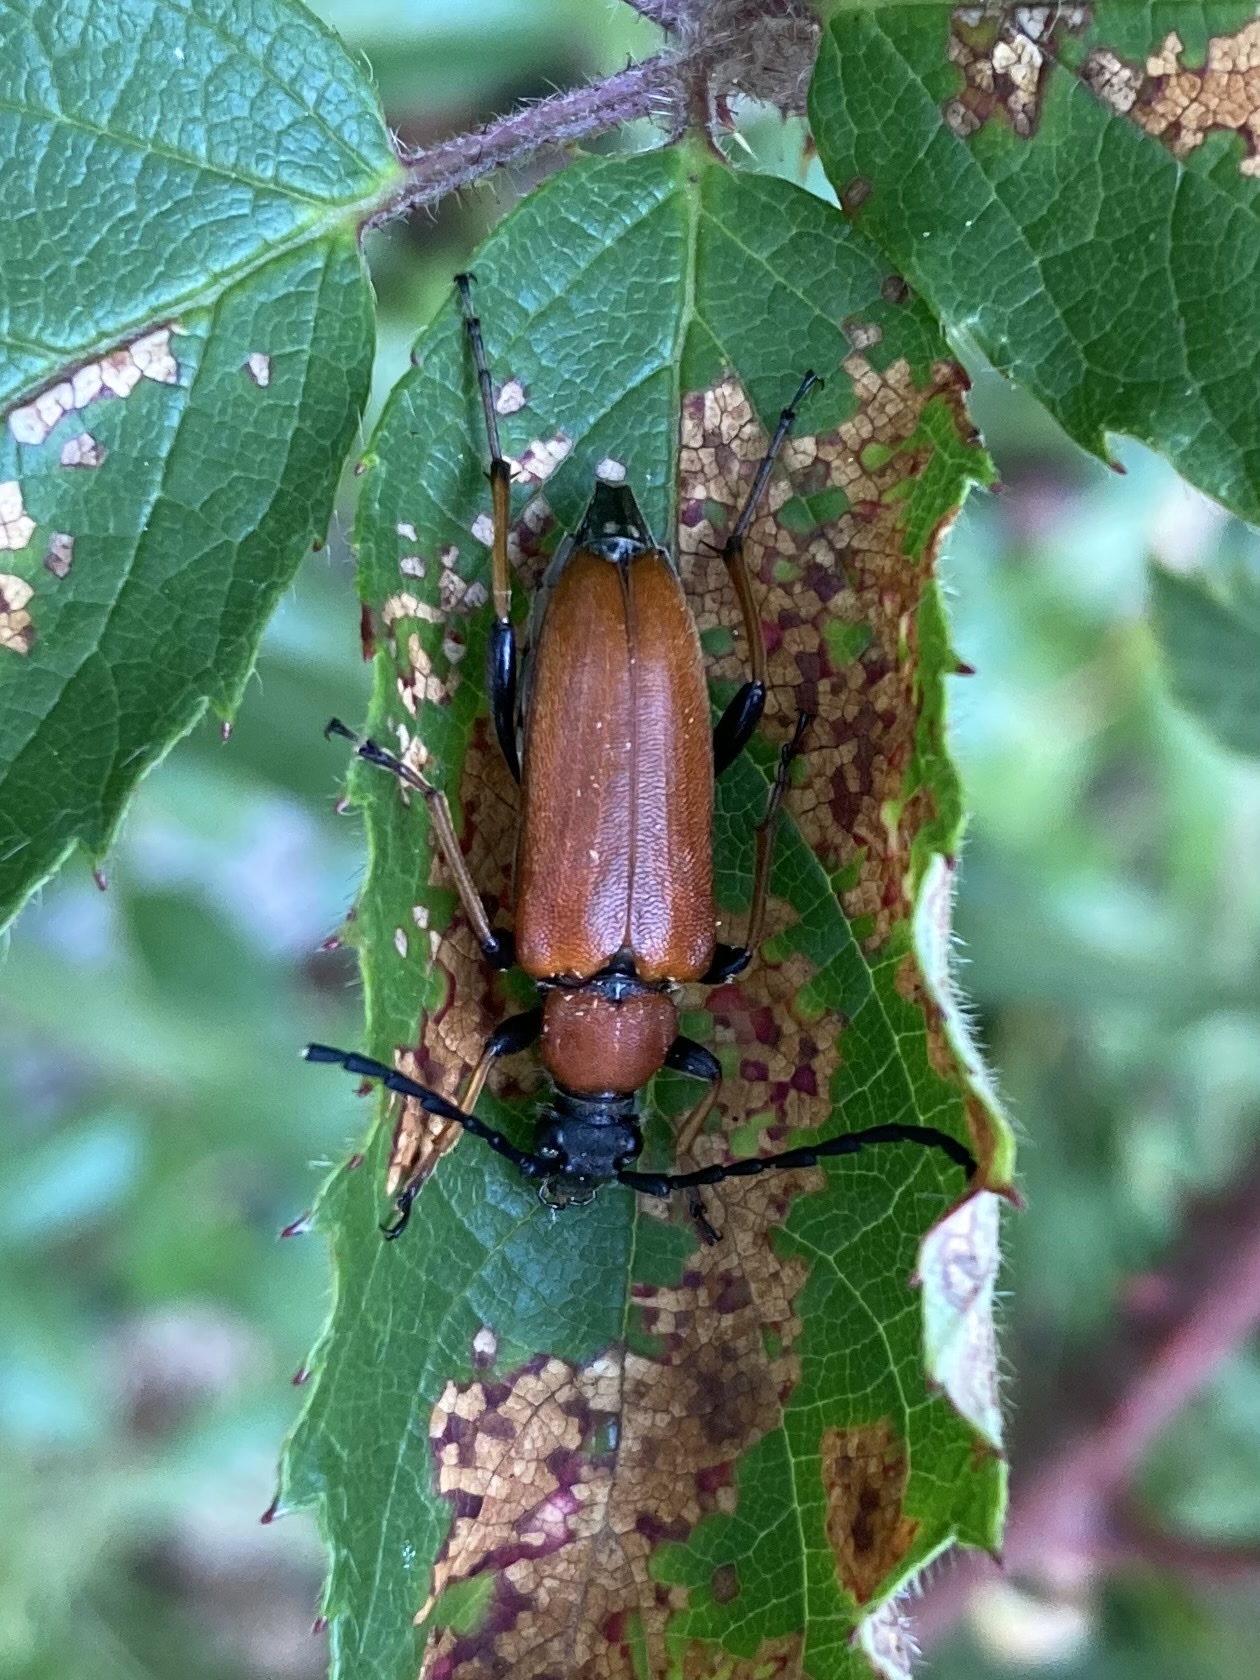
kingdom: Animalia
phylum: Arthropoda
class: Insecta
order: Coleoptera
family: Cerambycidae
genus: Stictoleptura
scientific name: Stictoleptura rubra
